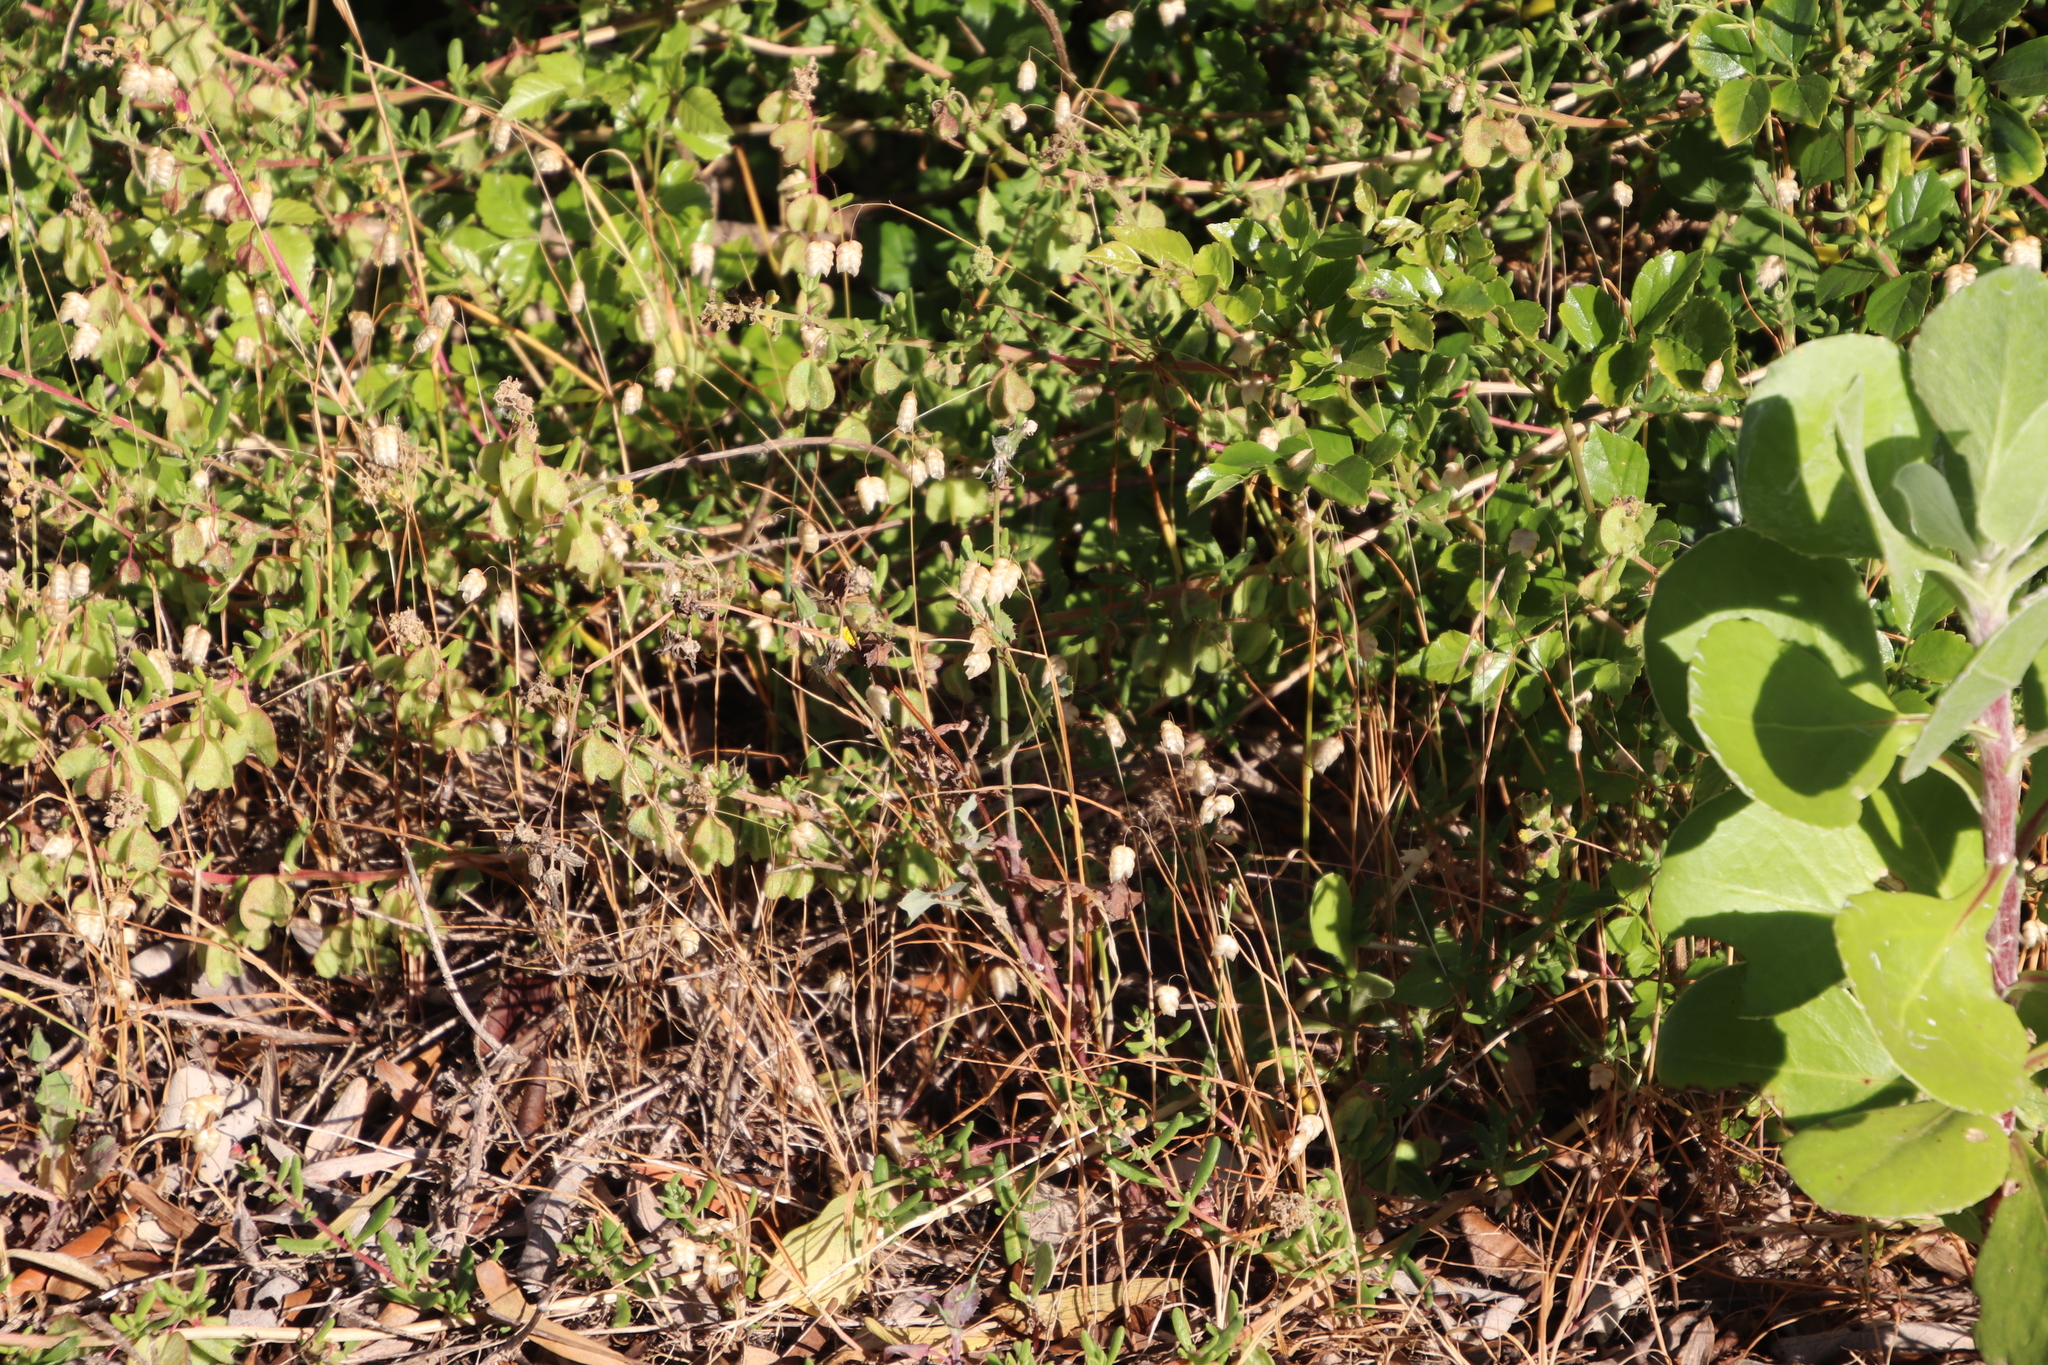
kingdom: Plantae
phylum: Tracheophyta
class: Liliopsida
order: Poales
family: Poaceae
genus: Briza
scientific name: Briza maxima
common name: Big quakinggrass
